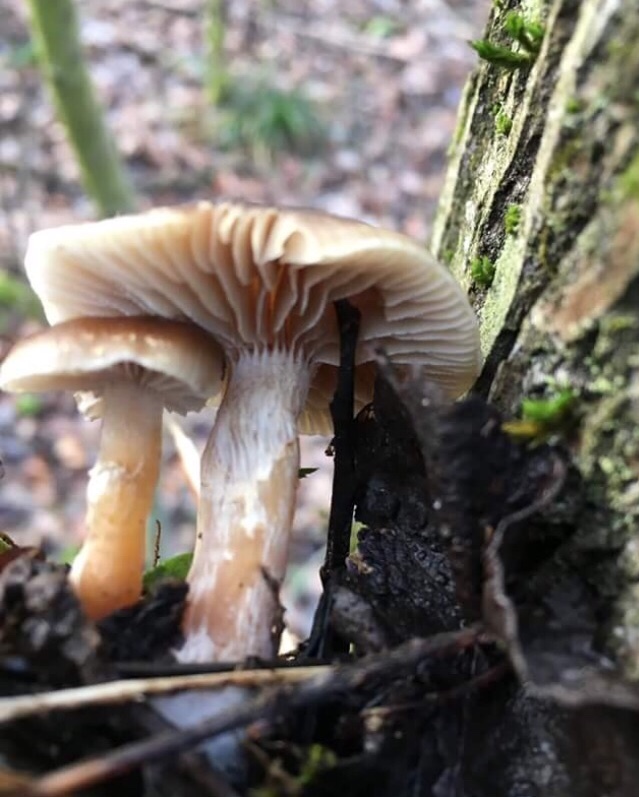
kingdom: Fungi
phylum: Basidiomycota
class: Agaricomycetes
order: Agaricales
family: Strophariaceae
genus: Meottomyces
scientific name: Meottomyces dissimulans
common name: Winter brownie
